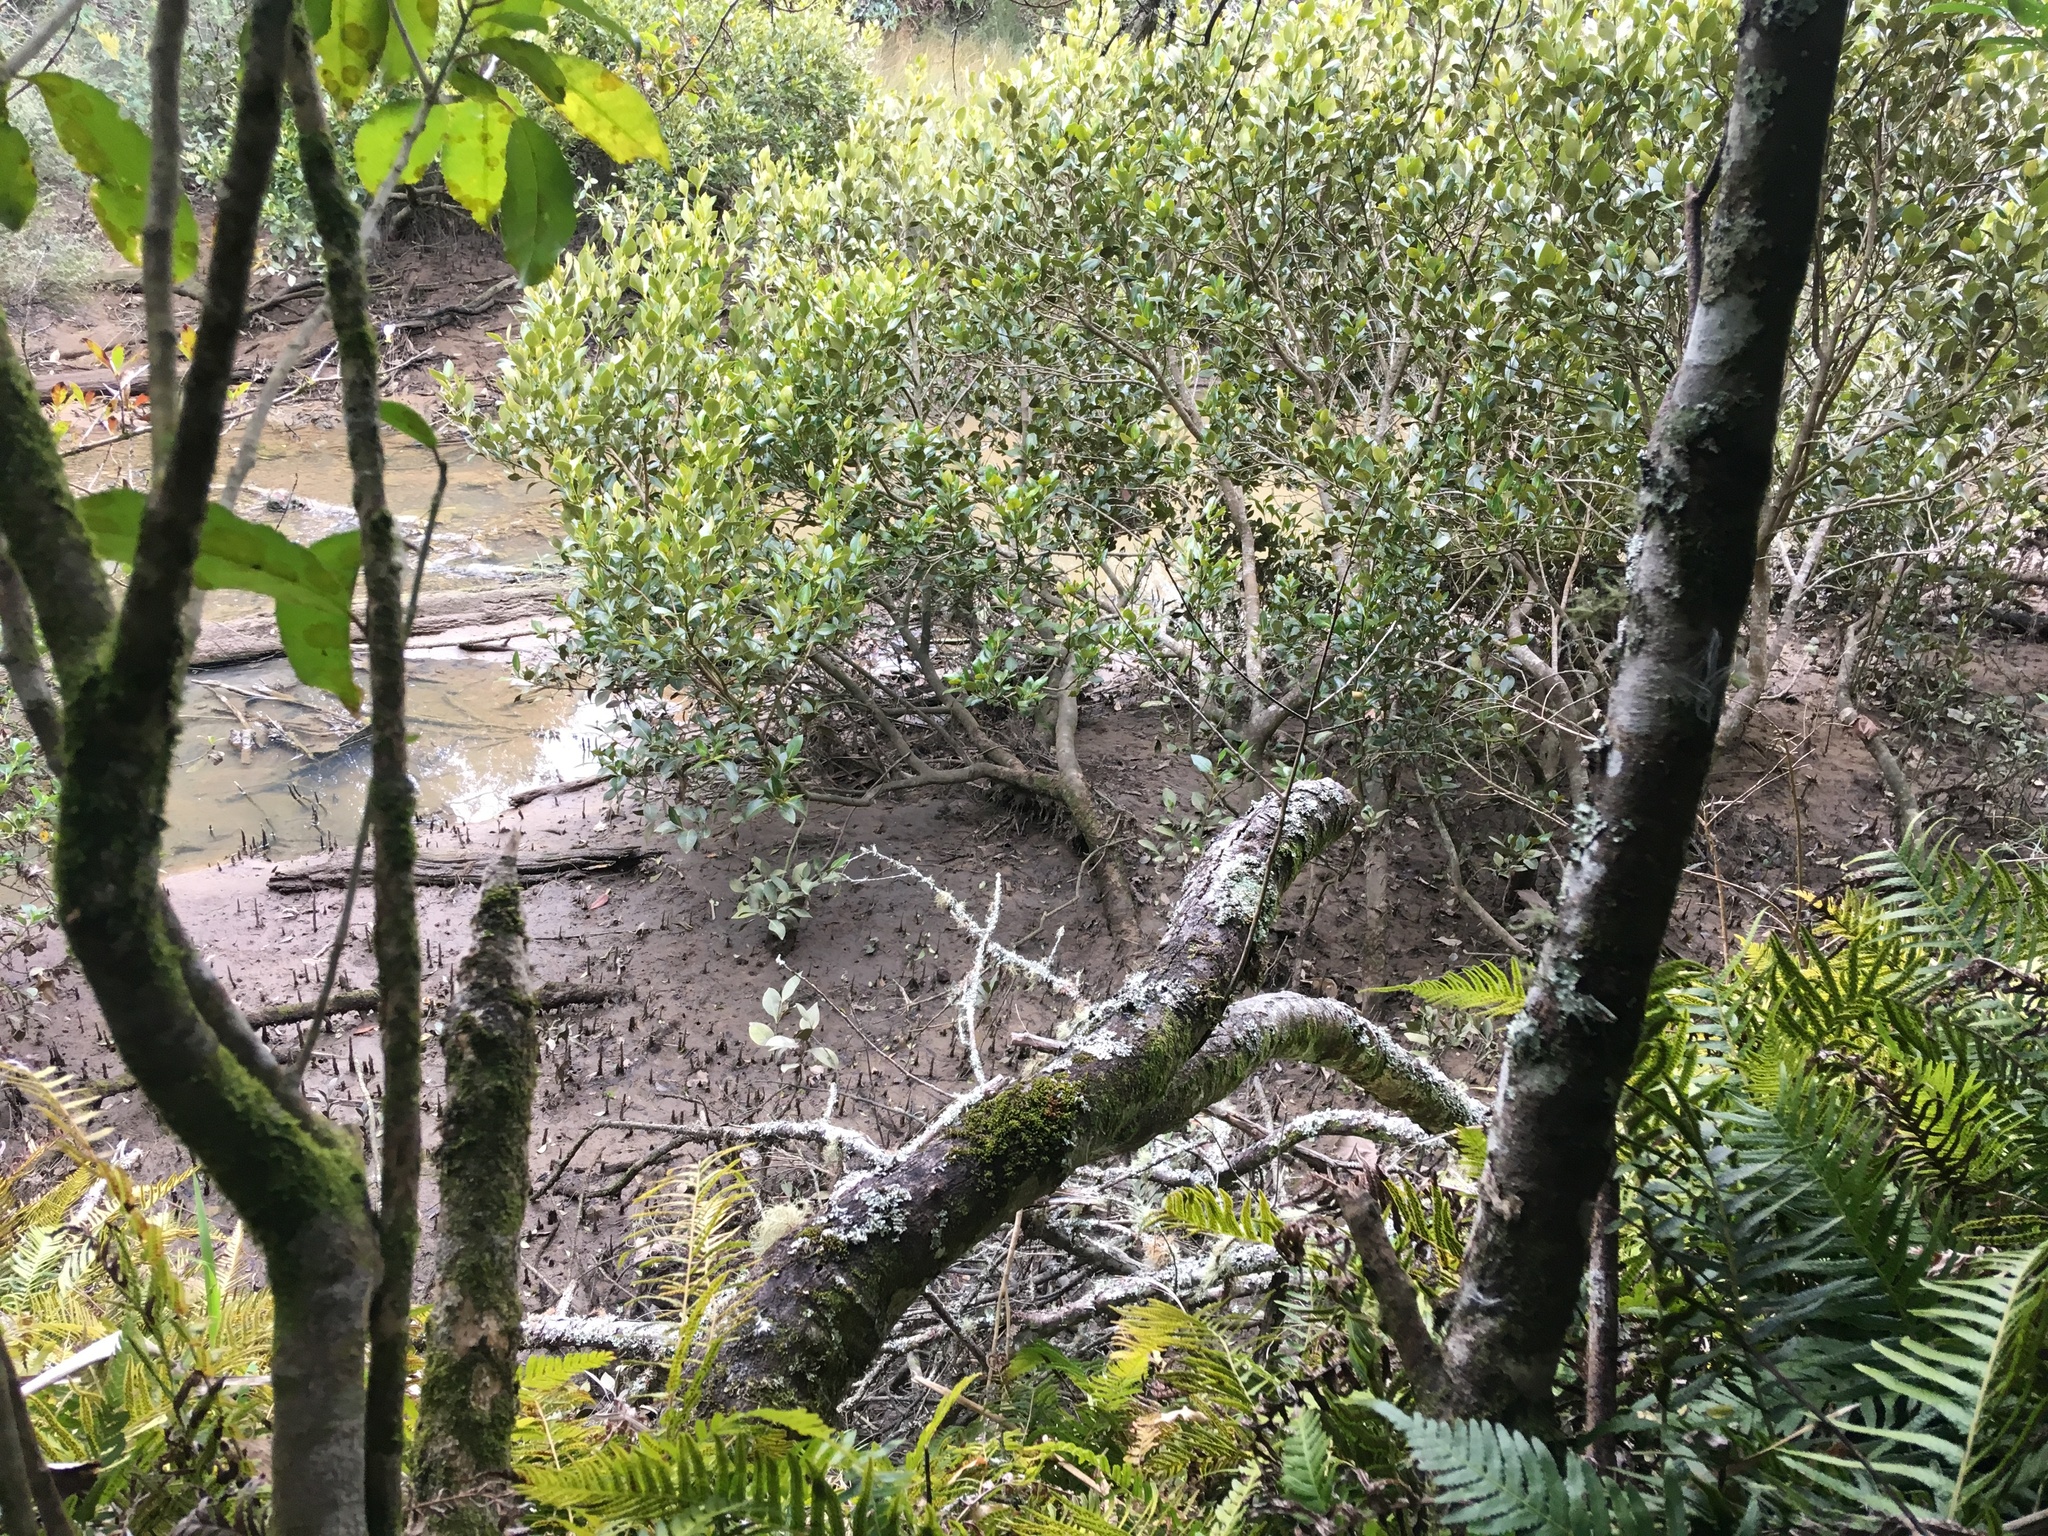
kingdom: Plantae
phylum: Tracheophyta
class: Magnoliopsida
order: Lamiales
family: Acanthaceae
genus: Avicennia
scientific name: Avicennia marina
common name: Gray mangrove
